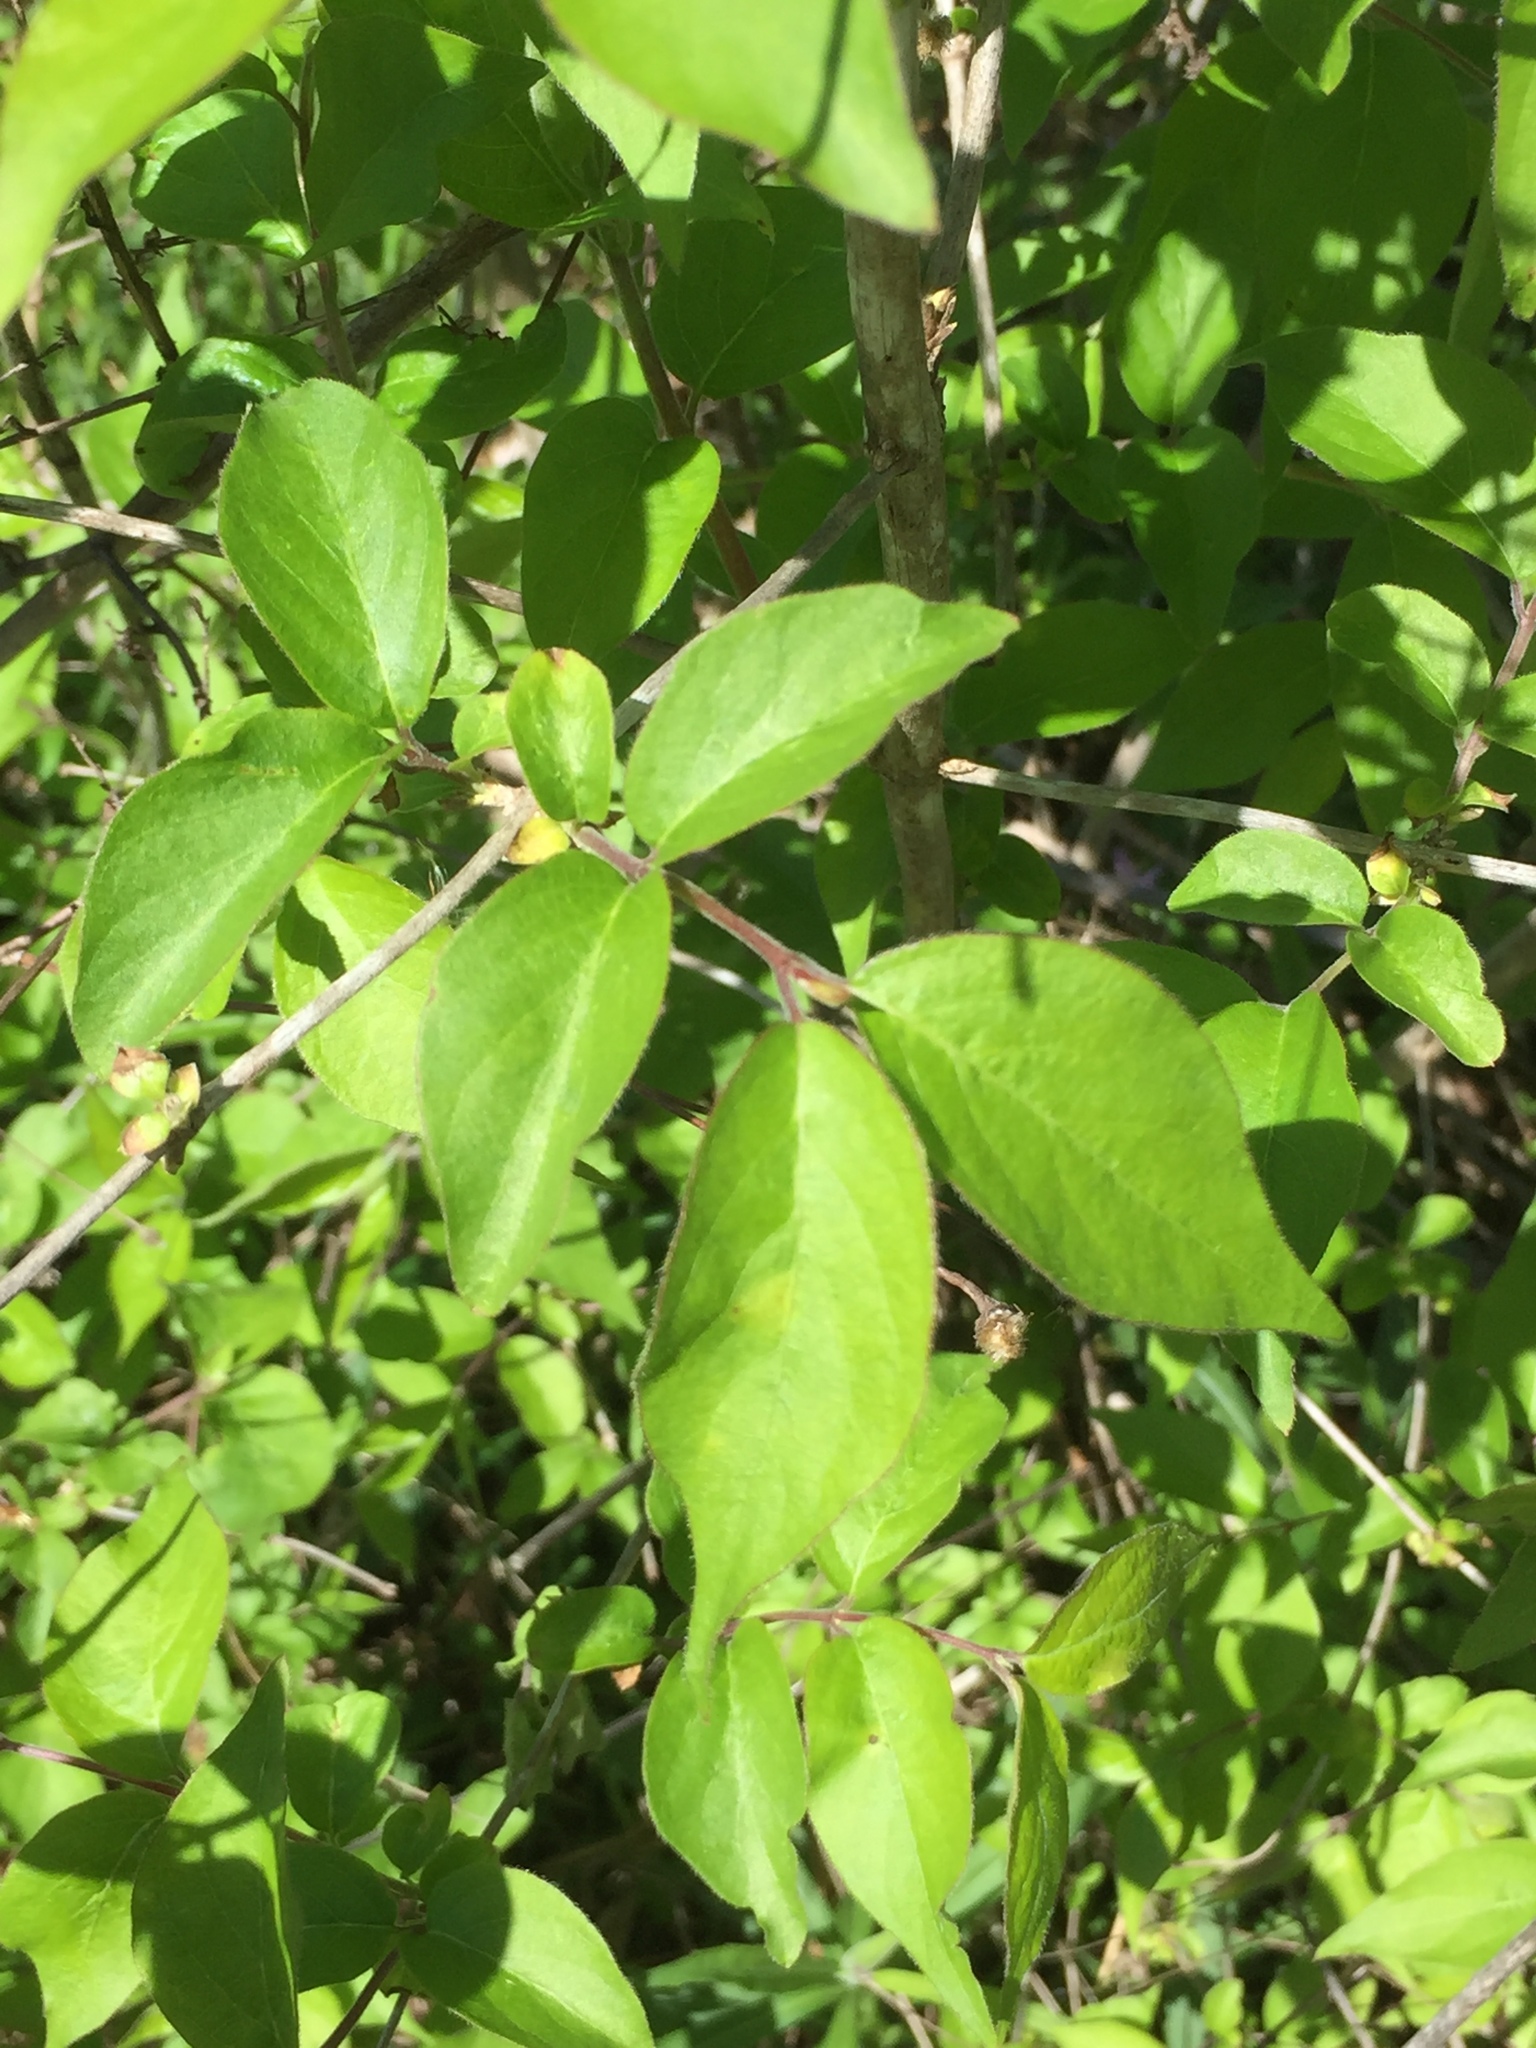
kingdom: Plantae
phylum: Tracheophyta
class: Magnoliopsida
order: Dipsacales
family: Caprifoliaceae
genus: Lonicera
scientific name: Lonicera maackii
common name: Amur honeysuckle
